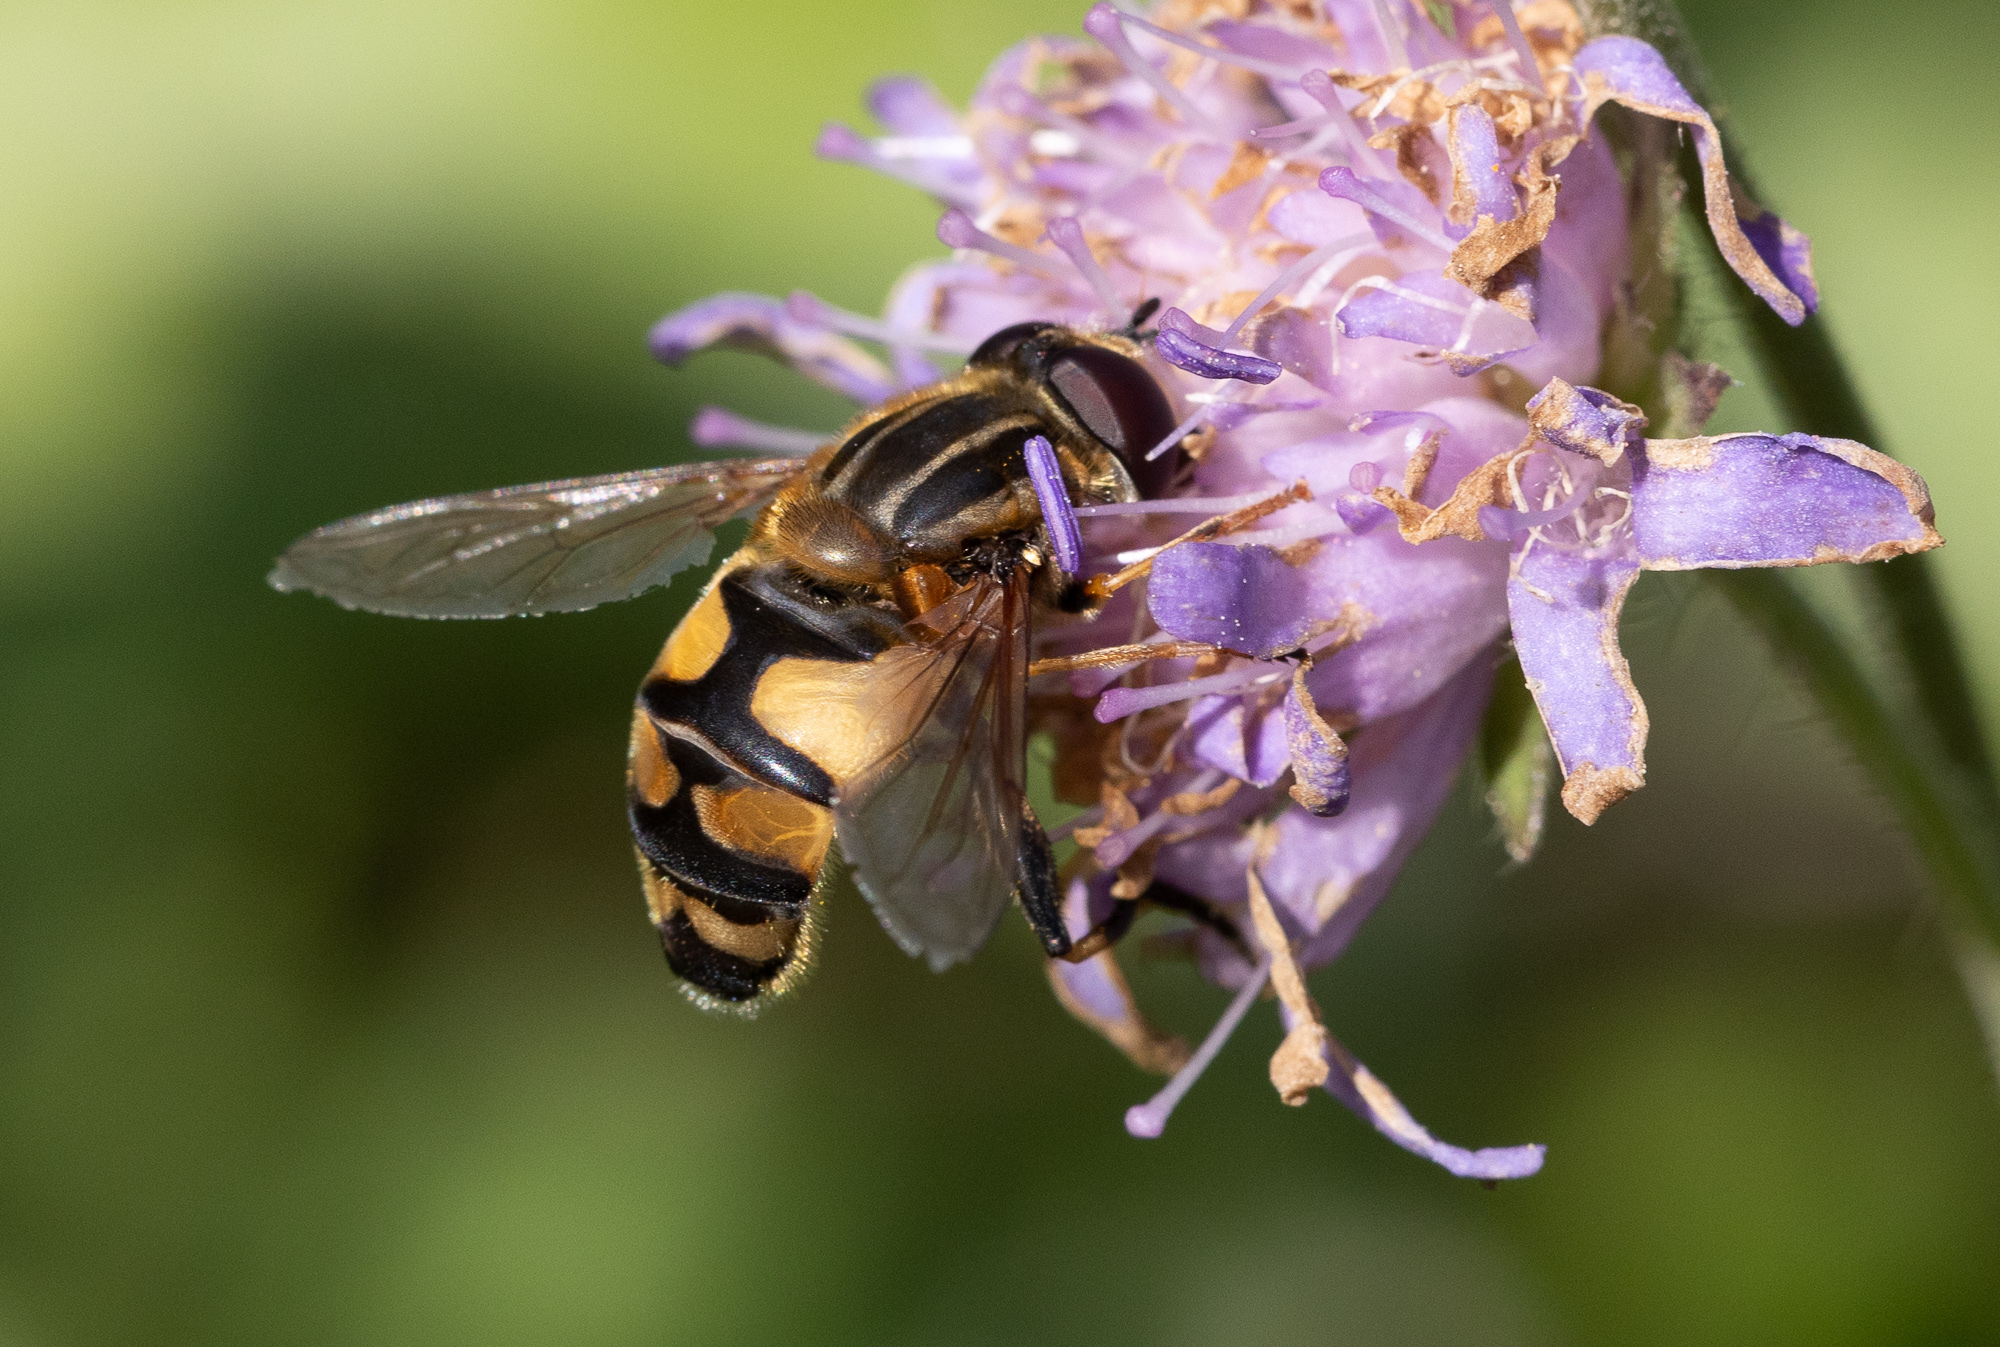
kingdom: Animalia
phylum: Arthropoda
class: Insecta
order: Diptera
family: Syrphidae
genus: Helophilus
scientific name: Helophilus trivittatus
